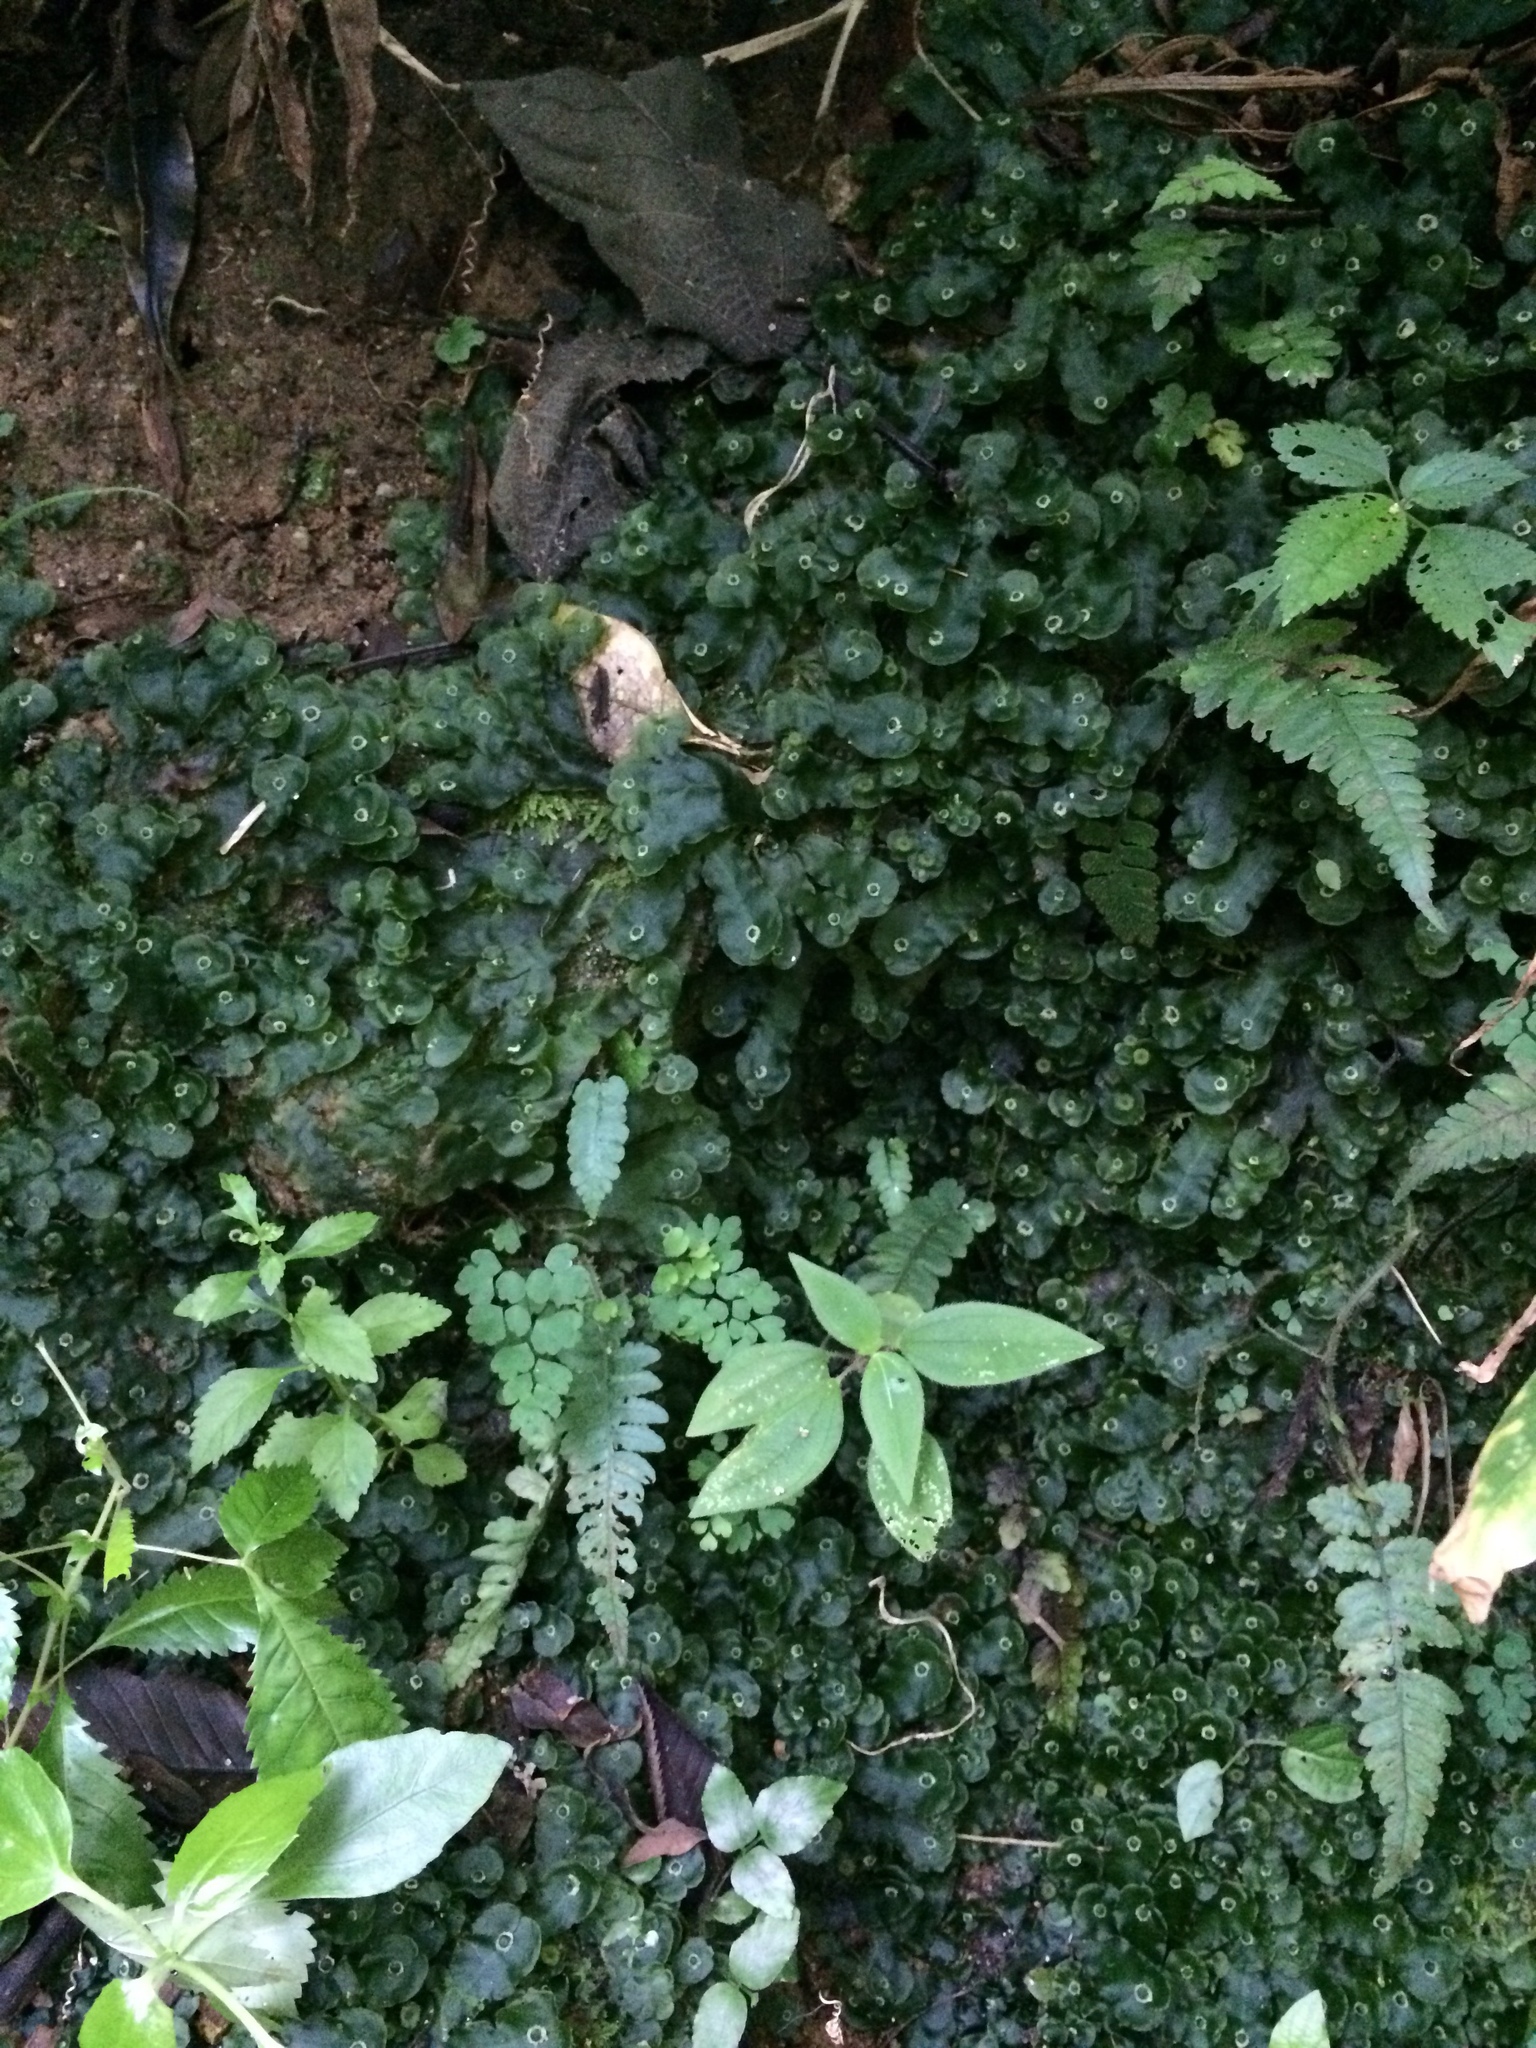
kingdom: Plantae
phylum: Marchantiophyta
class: Marchantiopsida
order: Marchantiales
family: Dumortieraceae
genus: Dumortiera
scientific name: Dumortiera hirsuta
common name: Dumortier's liverwort
